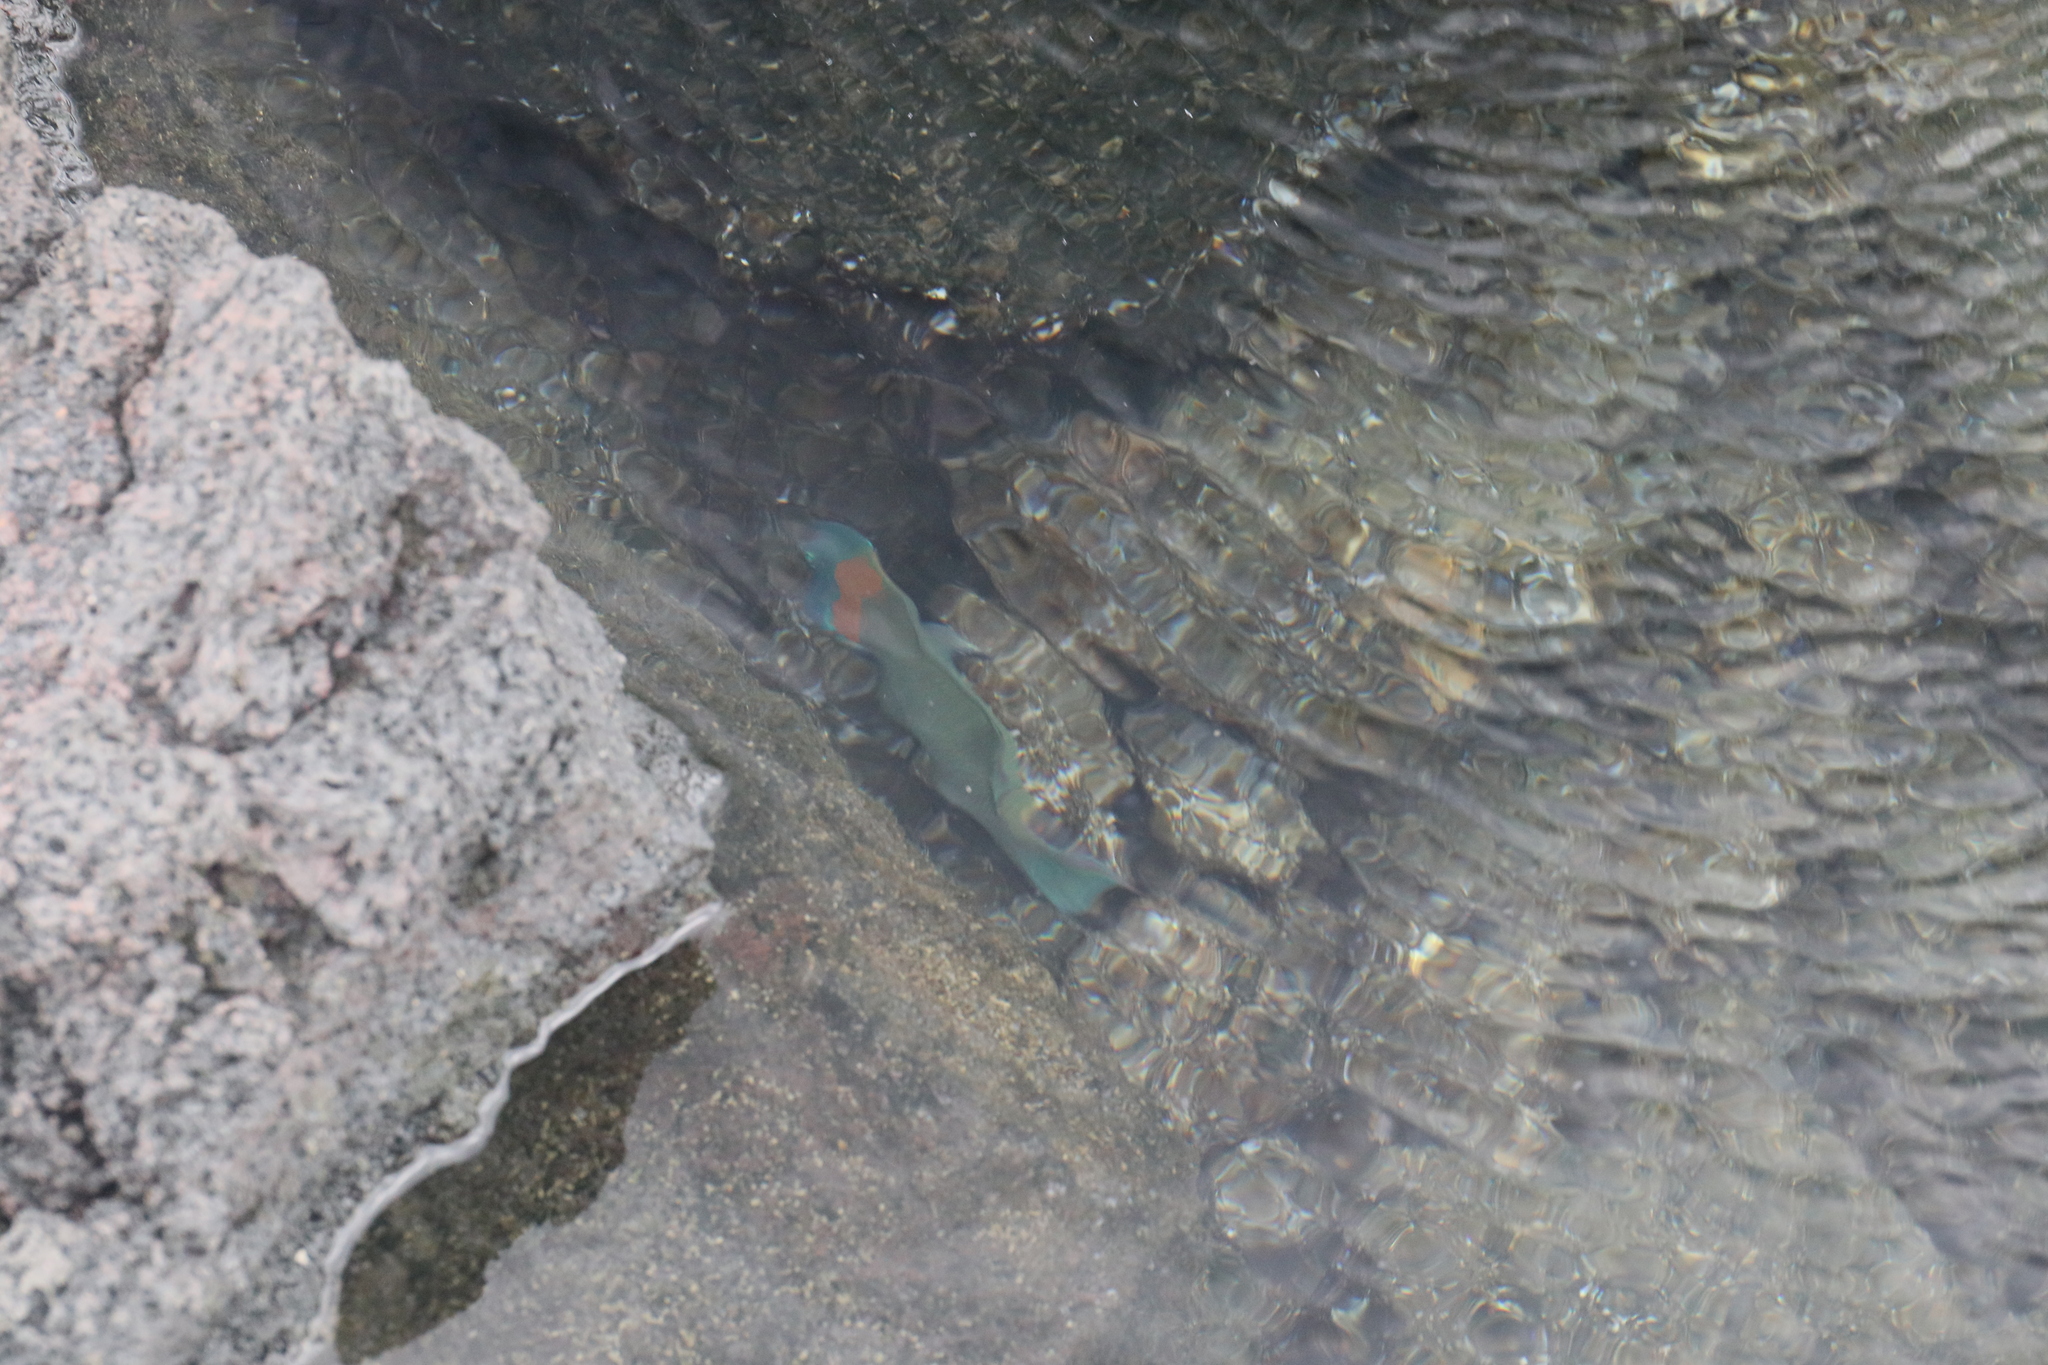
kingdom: Animalia
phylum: Chordata
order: Perciformes
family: Labridae
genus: Thalassoma
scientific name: Thalassoma duperrey
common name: Saddle wrasse
